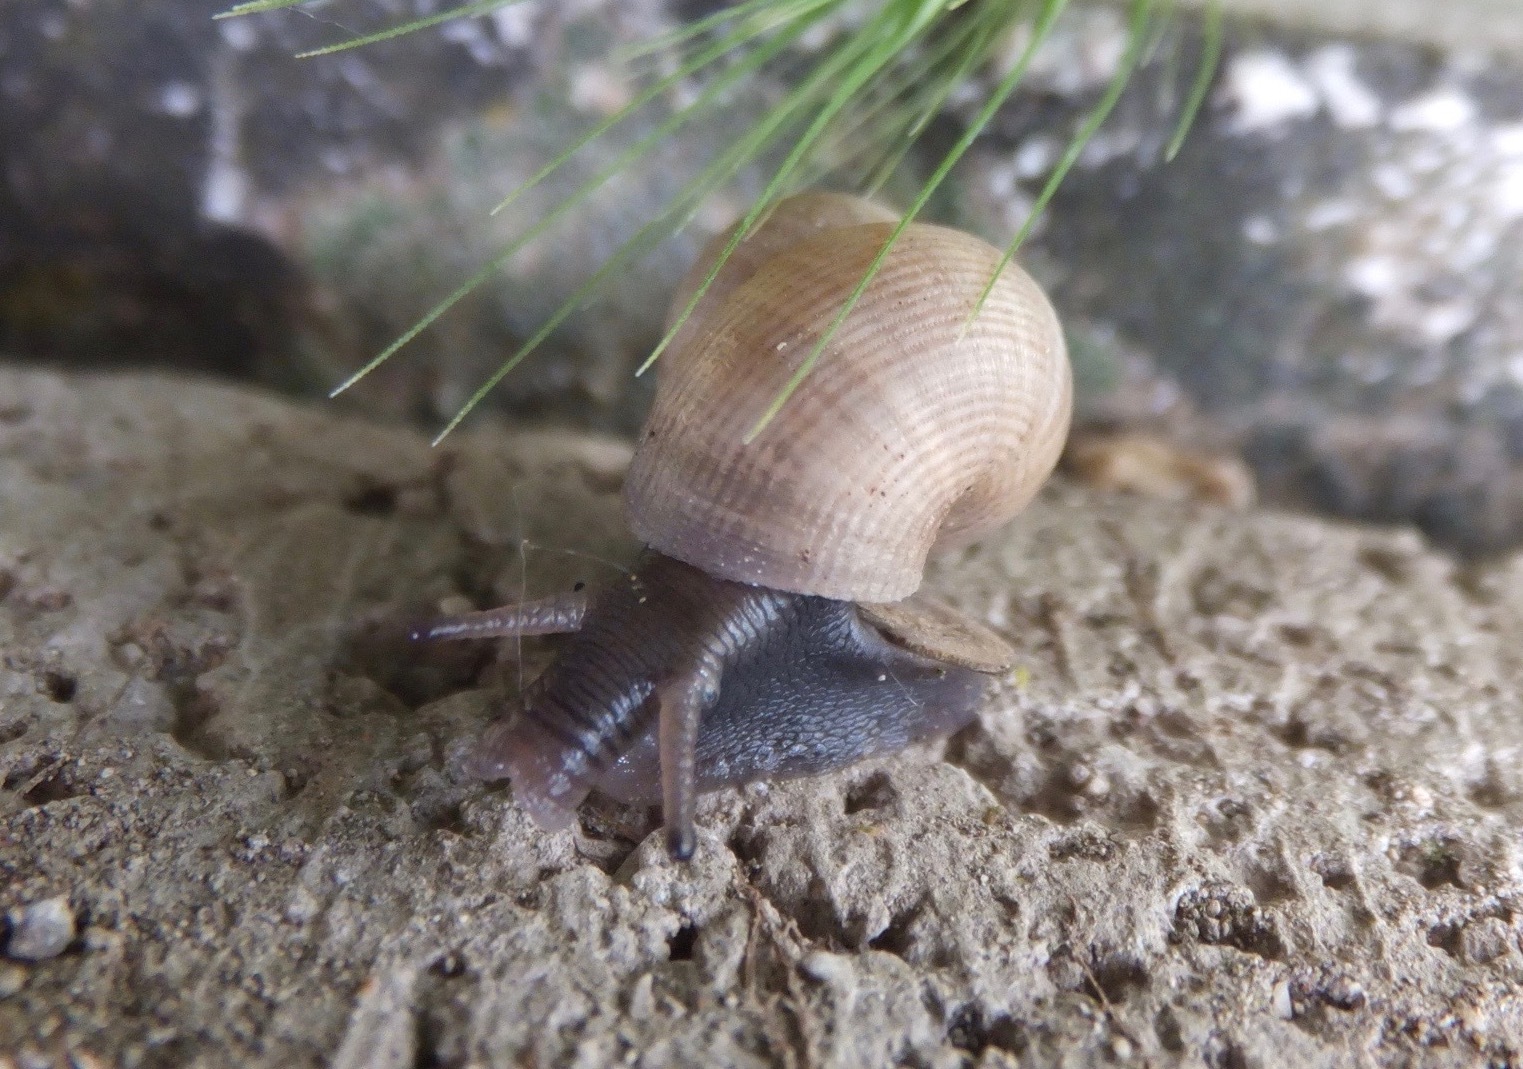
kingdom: Animalia
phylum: Mollusca
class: Gastropoda
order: Littorinimorpha
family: Pomatiidae
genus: Pomatias
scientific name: Pomatias elegans
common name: Red-mouthed snail
